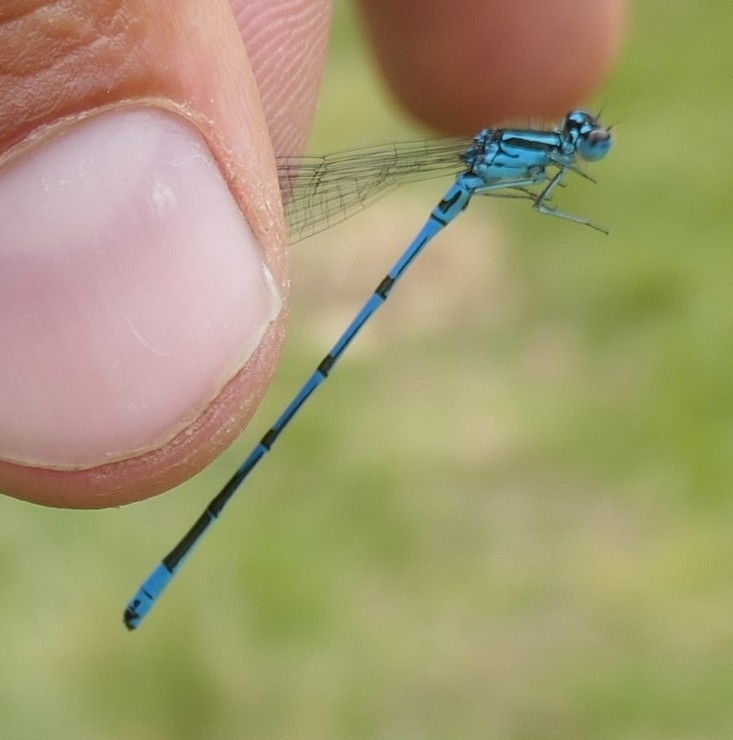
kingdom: Animalia
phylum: Arthropoda
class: Insecta
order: Odonata
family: Coenagrionidae
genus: Coenagrion
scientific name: Coenagrion puella
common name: Azure damselfly
